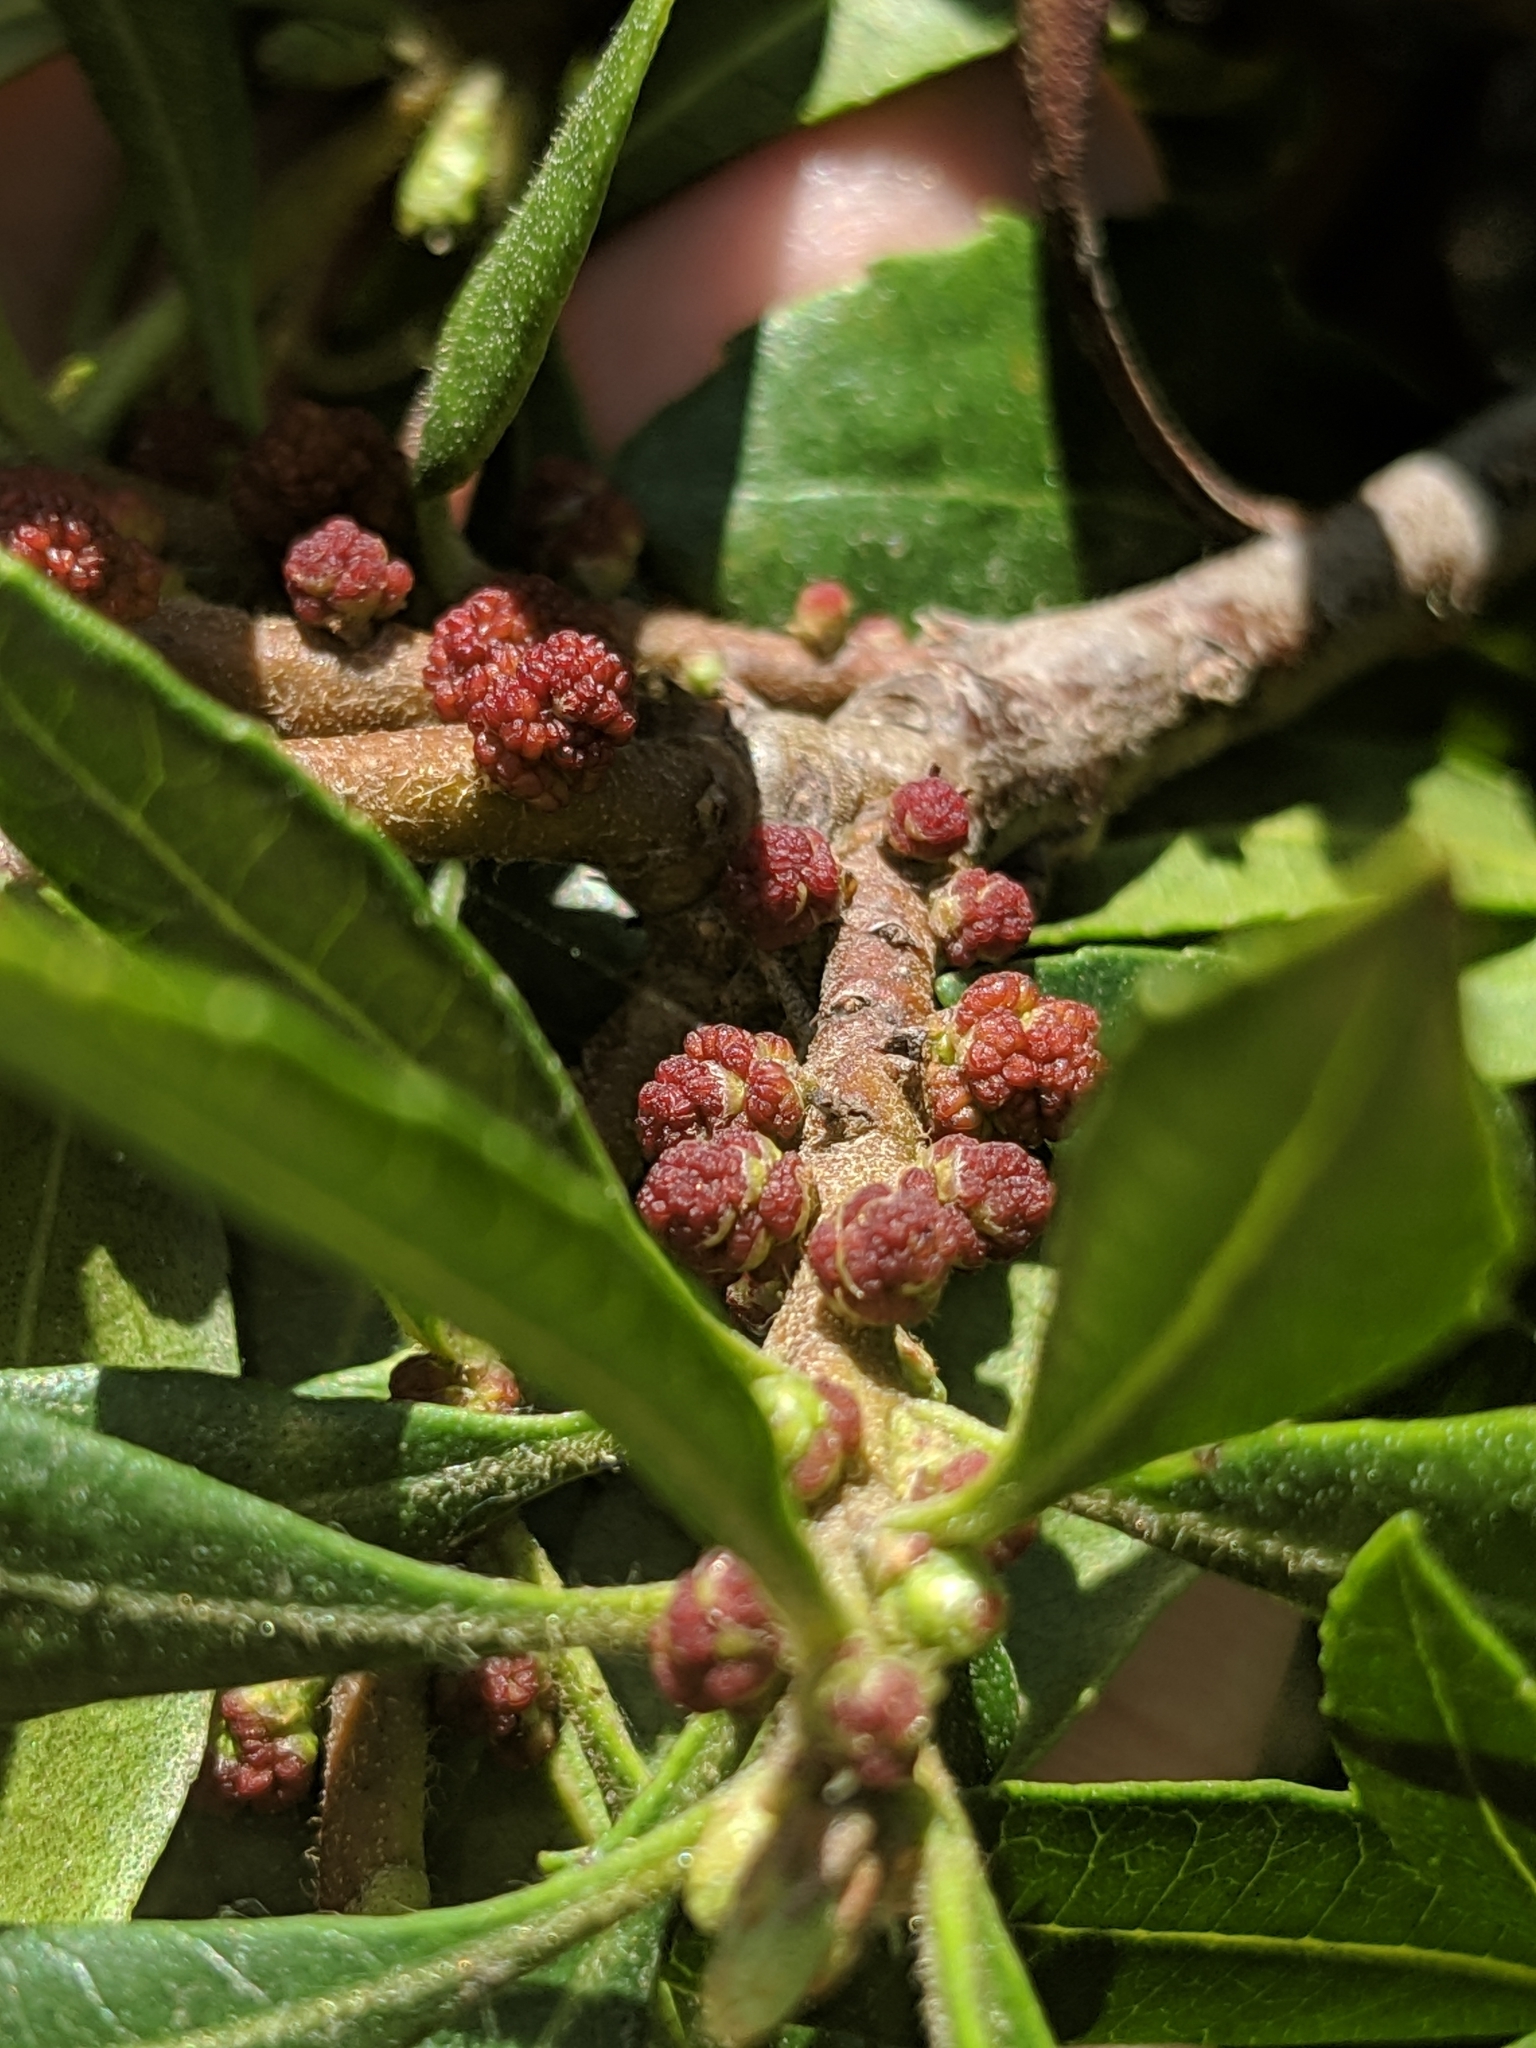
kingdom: Plantae
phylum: Tracheophyta
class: Magnoliopsida
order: Fagales
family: Myricaceae
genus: Morella
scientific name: Morella californica
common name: California wax-myrtle
